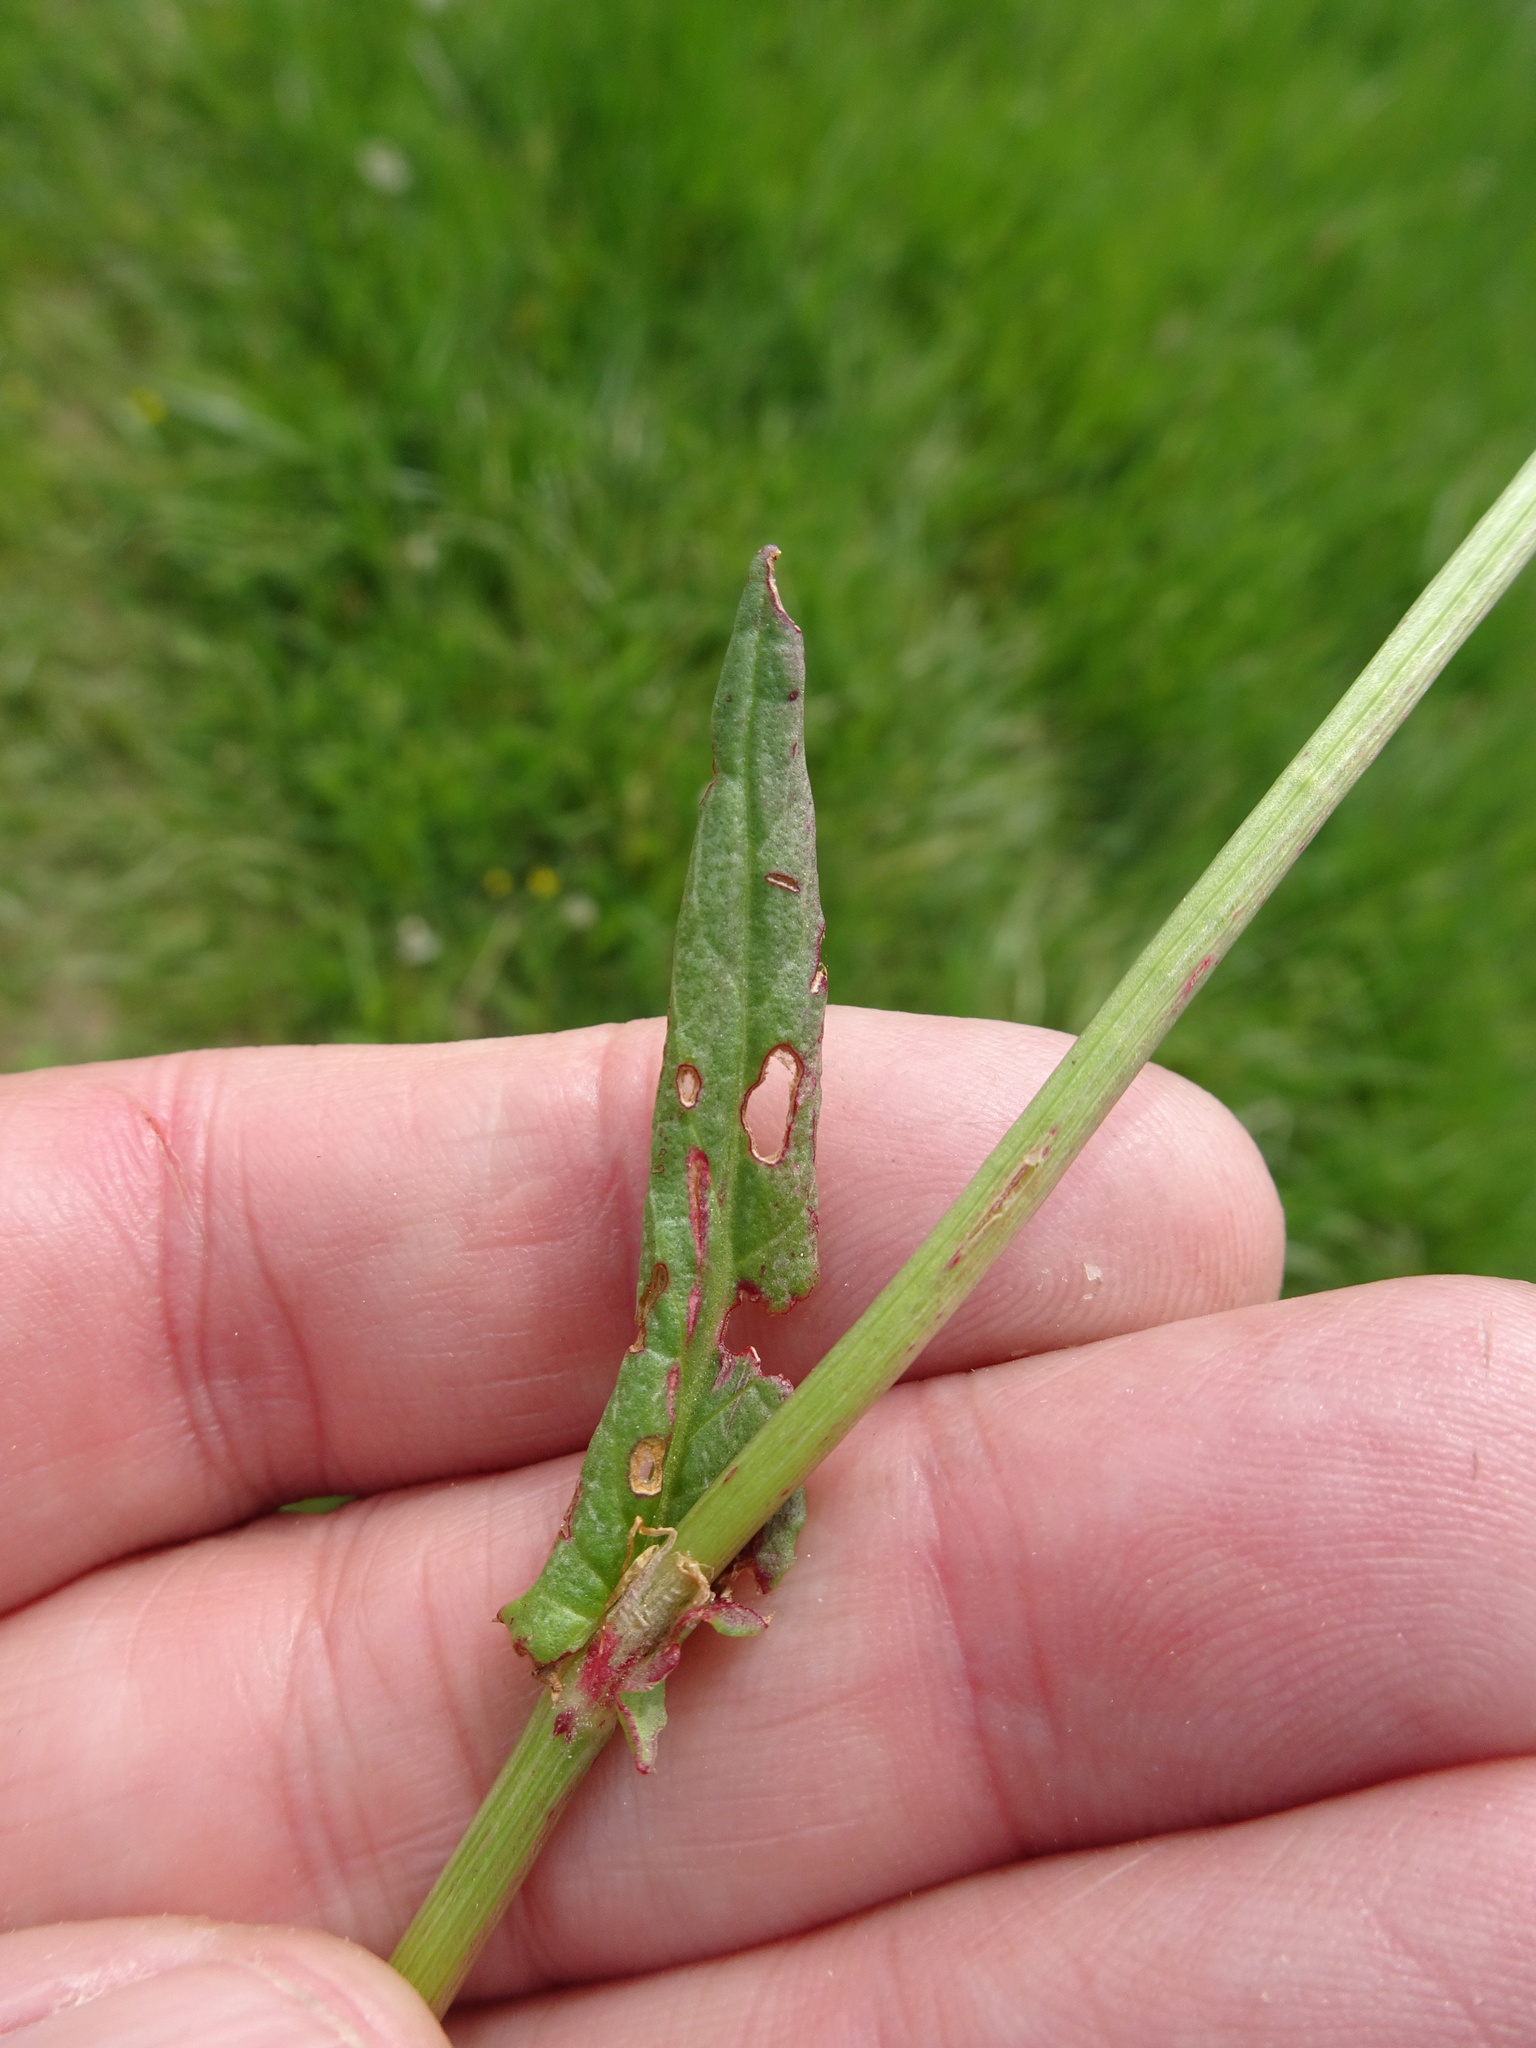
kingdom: Plantae
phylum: Tracheophyta
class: Magnoliopsida
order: Caryophyllales
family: Polygonaceae
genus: Rumex
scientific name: Rumex acetosa
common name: Garden sorrel
